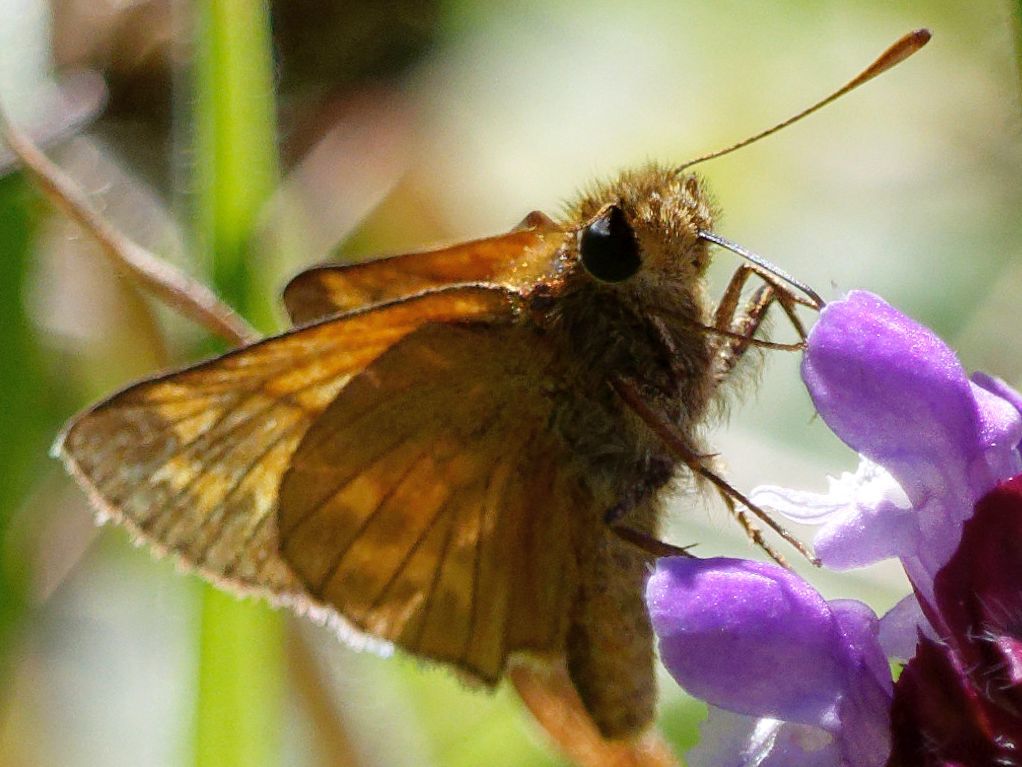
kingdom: Animalia
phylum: Arthropoda
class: Insecta
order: Lepidoptera
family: Hesperiidae
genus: Ochlodes
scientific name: Ochlodes venata
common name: Large skipper
